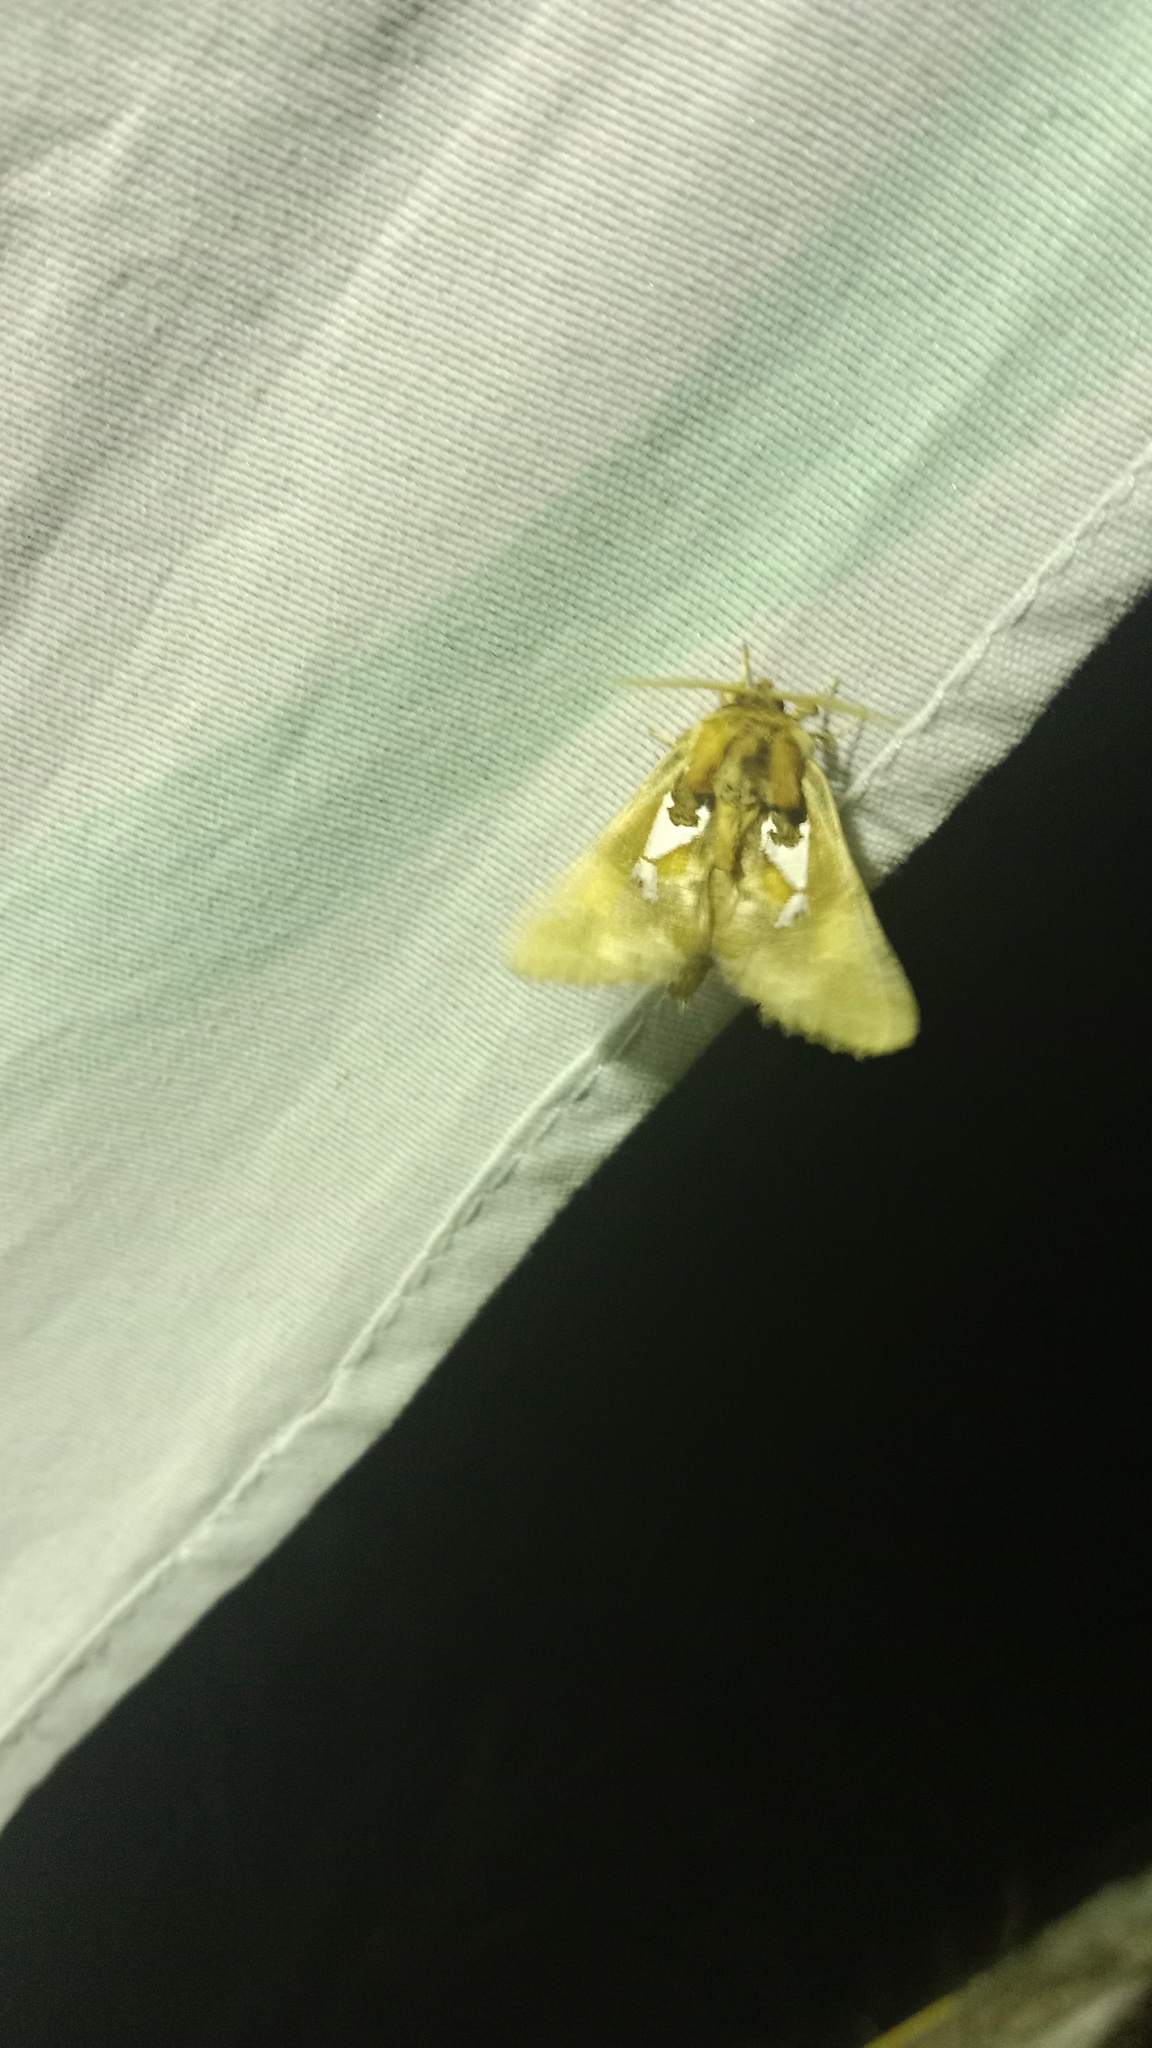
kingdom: Animalia
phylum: Arthropoda
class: Insecta
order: Lepidoptera
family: Notodontidae
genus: Spatalia
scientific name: Spatalia argentina
